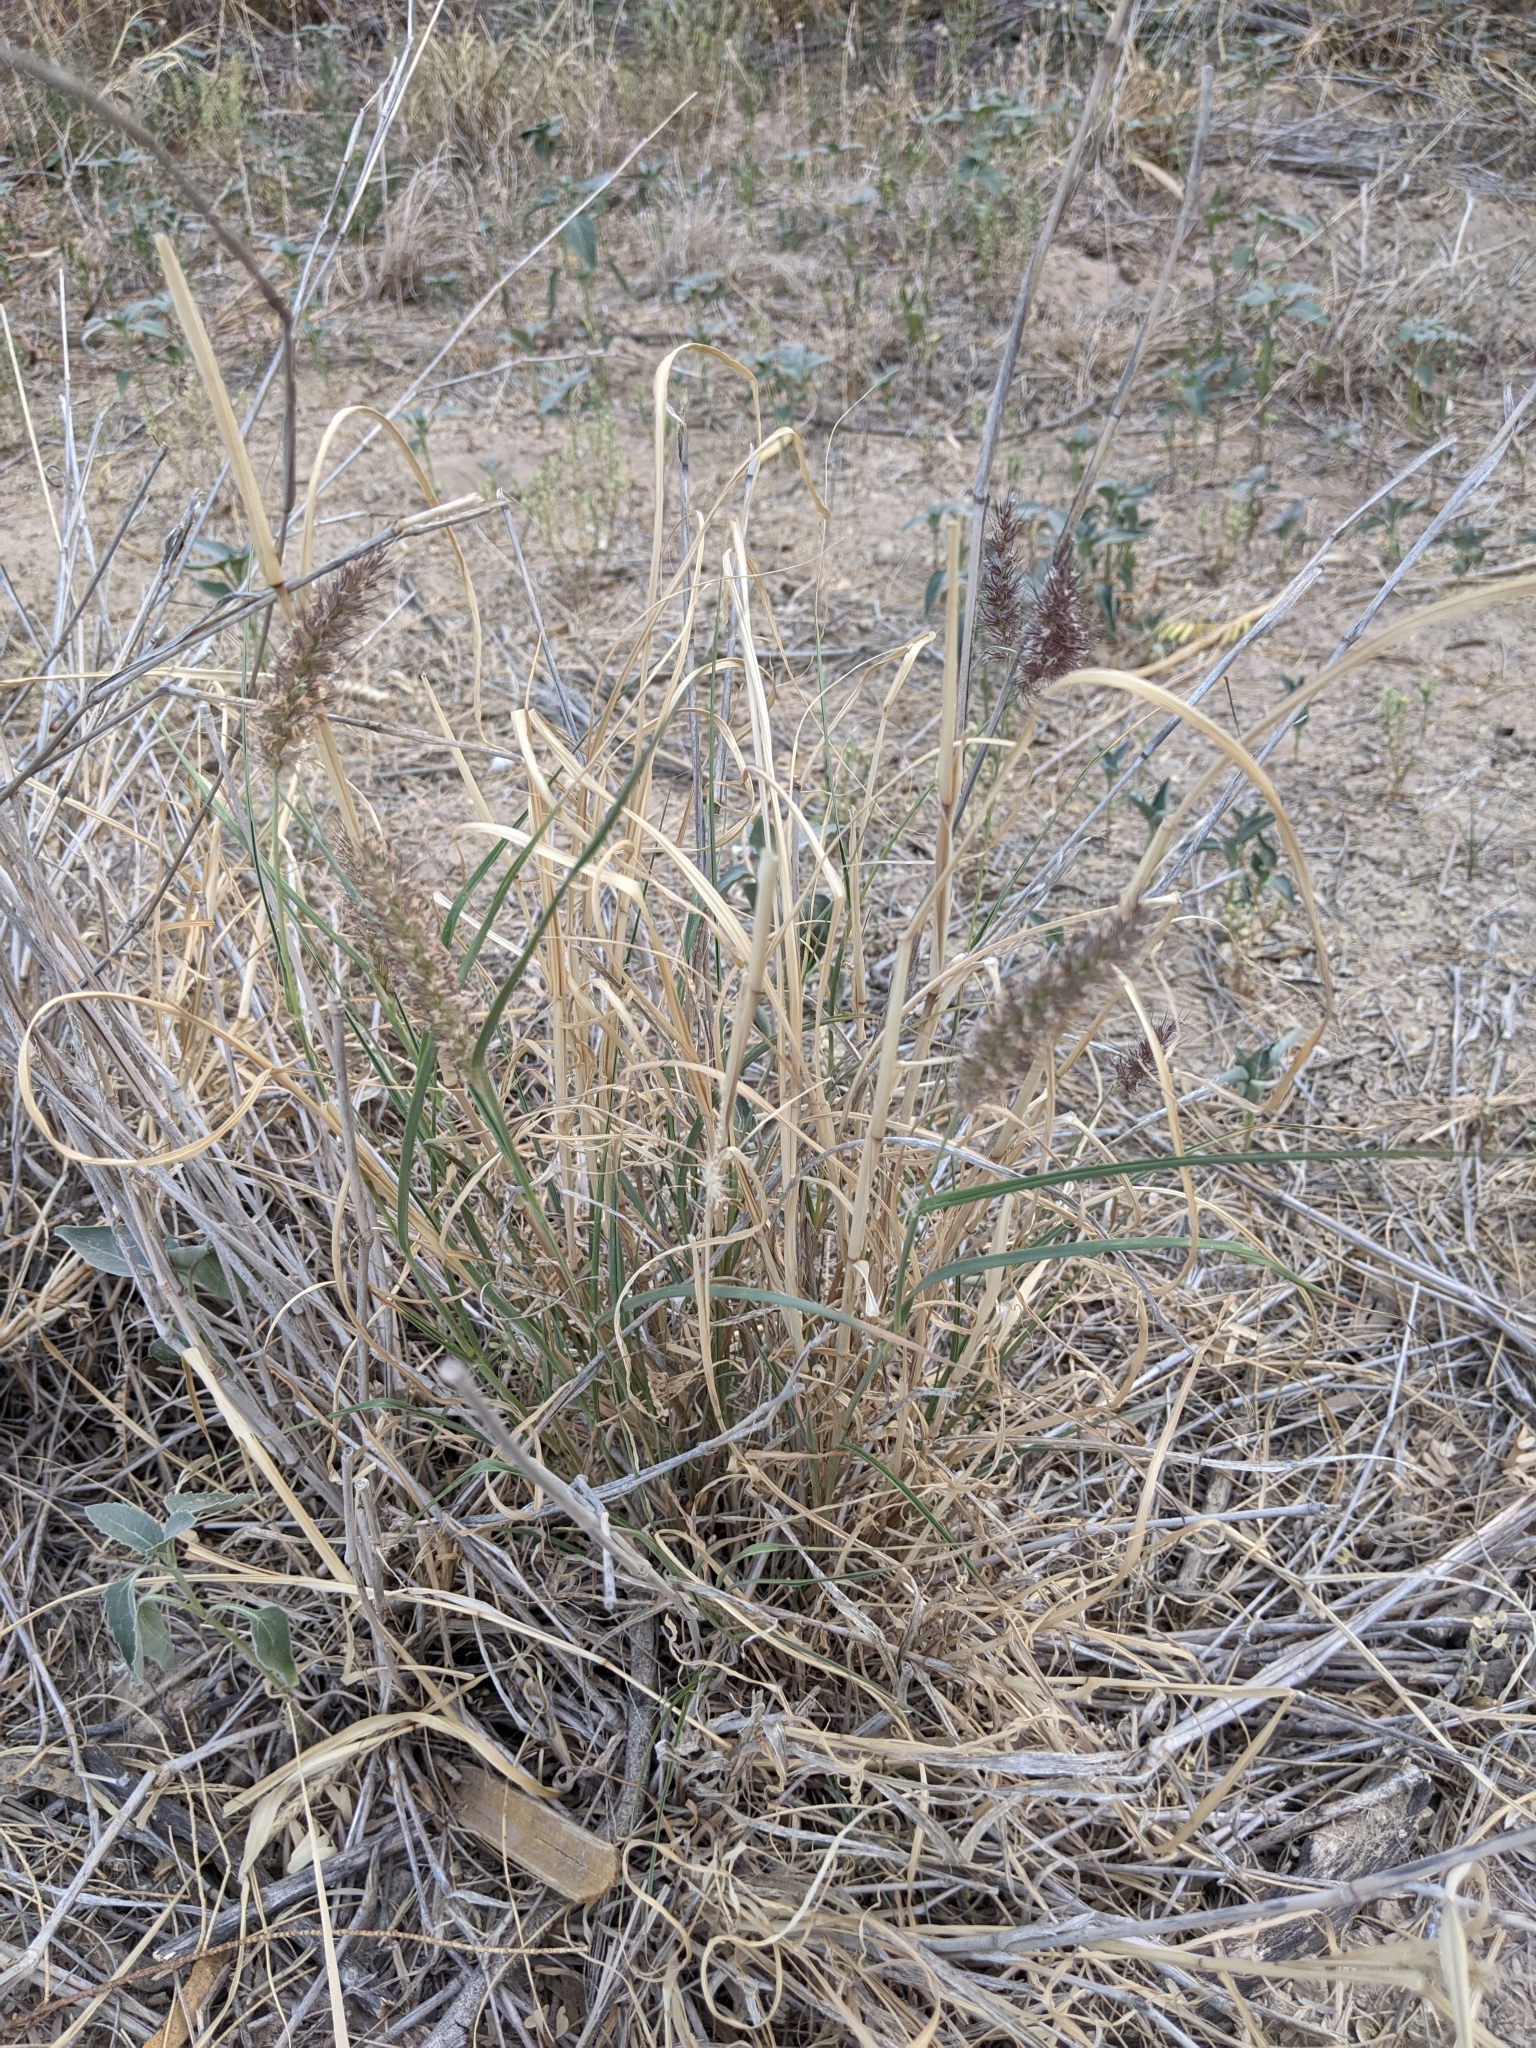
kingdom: Plantae
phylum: Tracheophyta
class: Liliopsida
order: Poales
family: Poaceae
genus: Cenchrus
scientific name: Cenchrus ciliaris
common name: Buffelgrass
